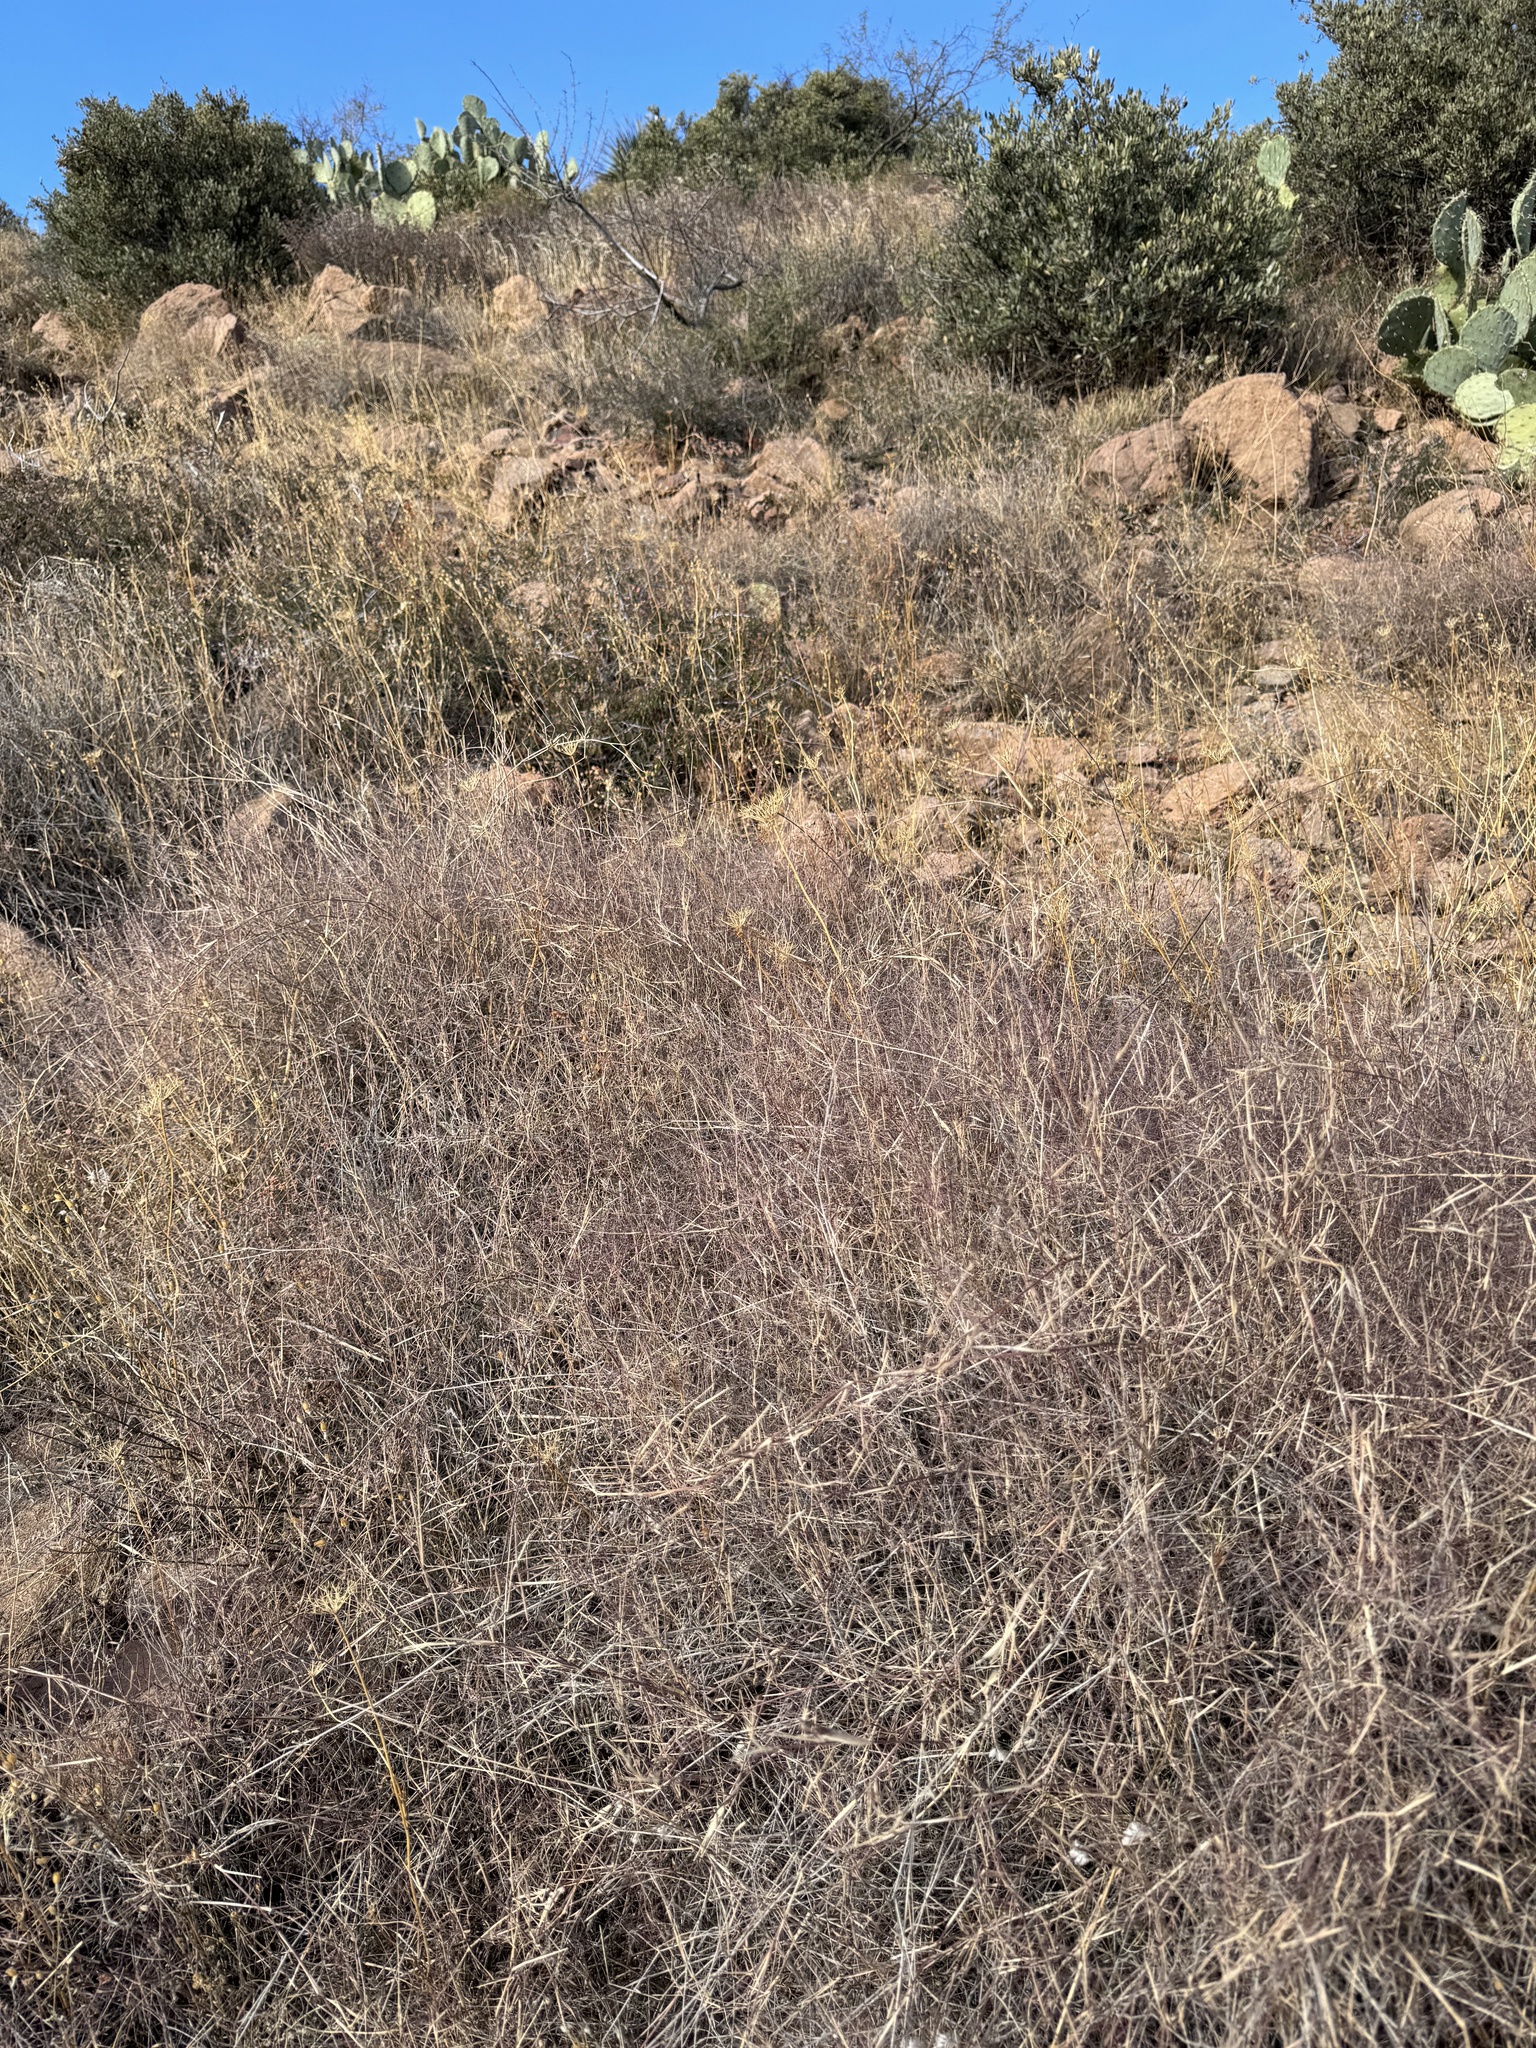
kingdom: Plantae
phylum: Tracheophyta
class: Liliopsida
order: Poales
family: Poaceae
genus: Muhlenbergia
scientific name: Muhlenbergia porteri
